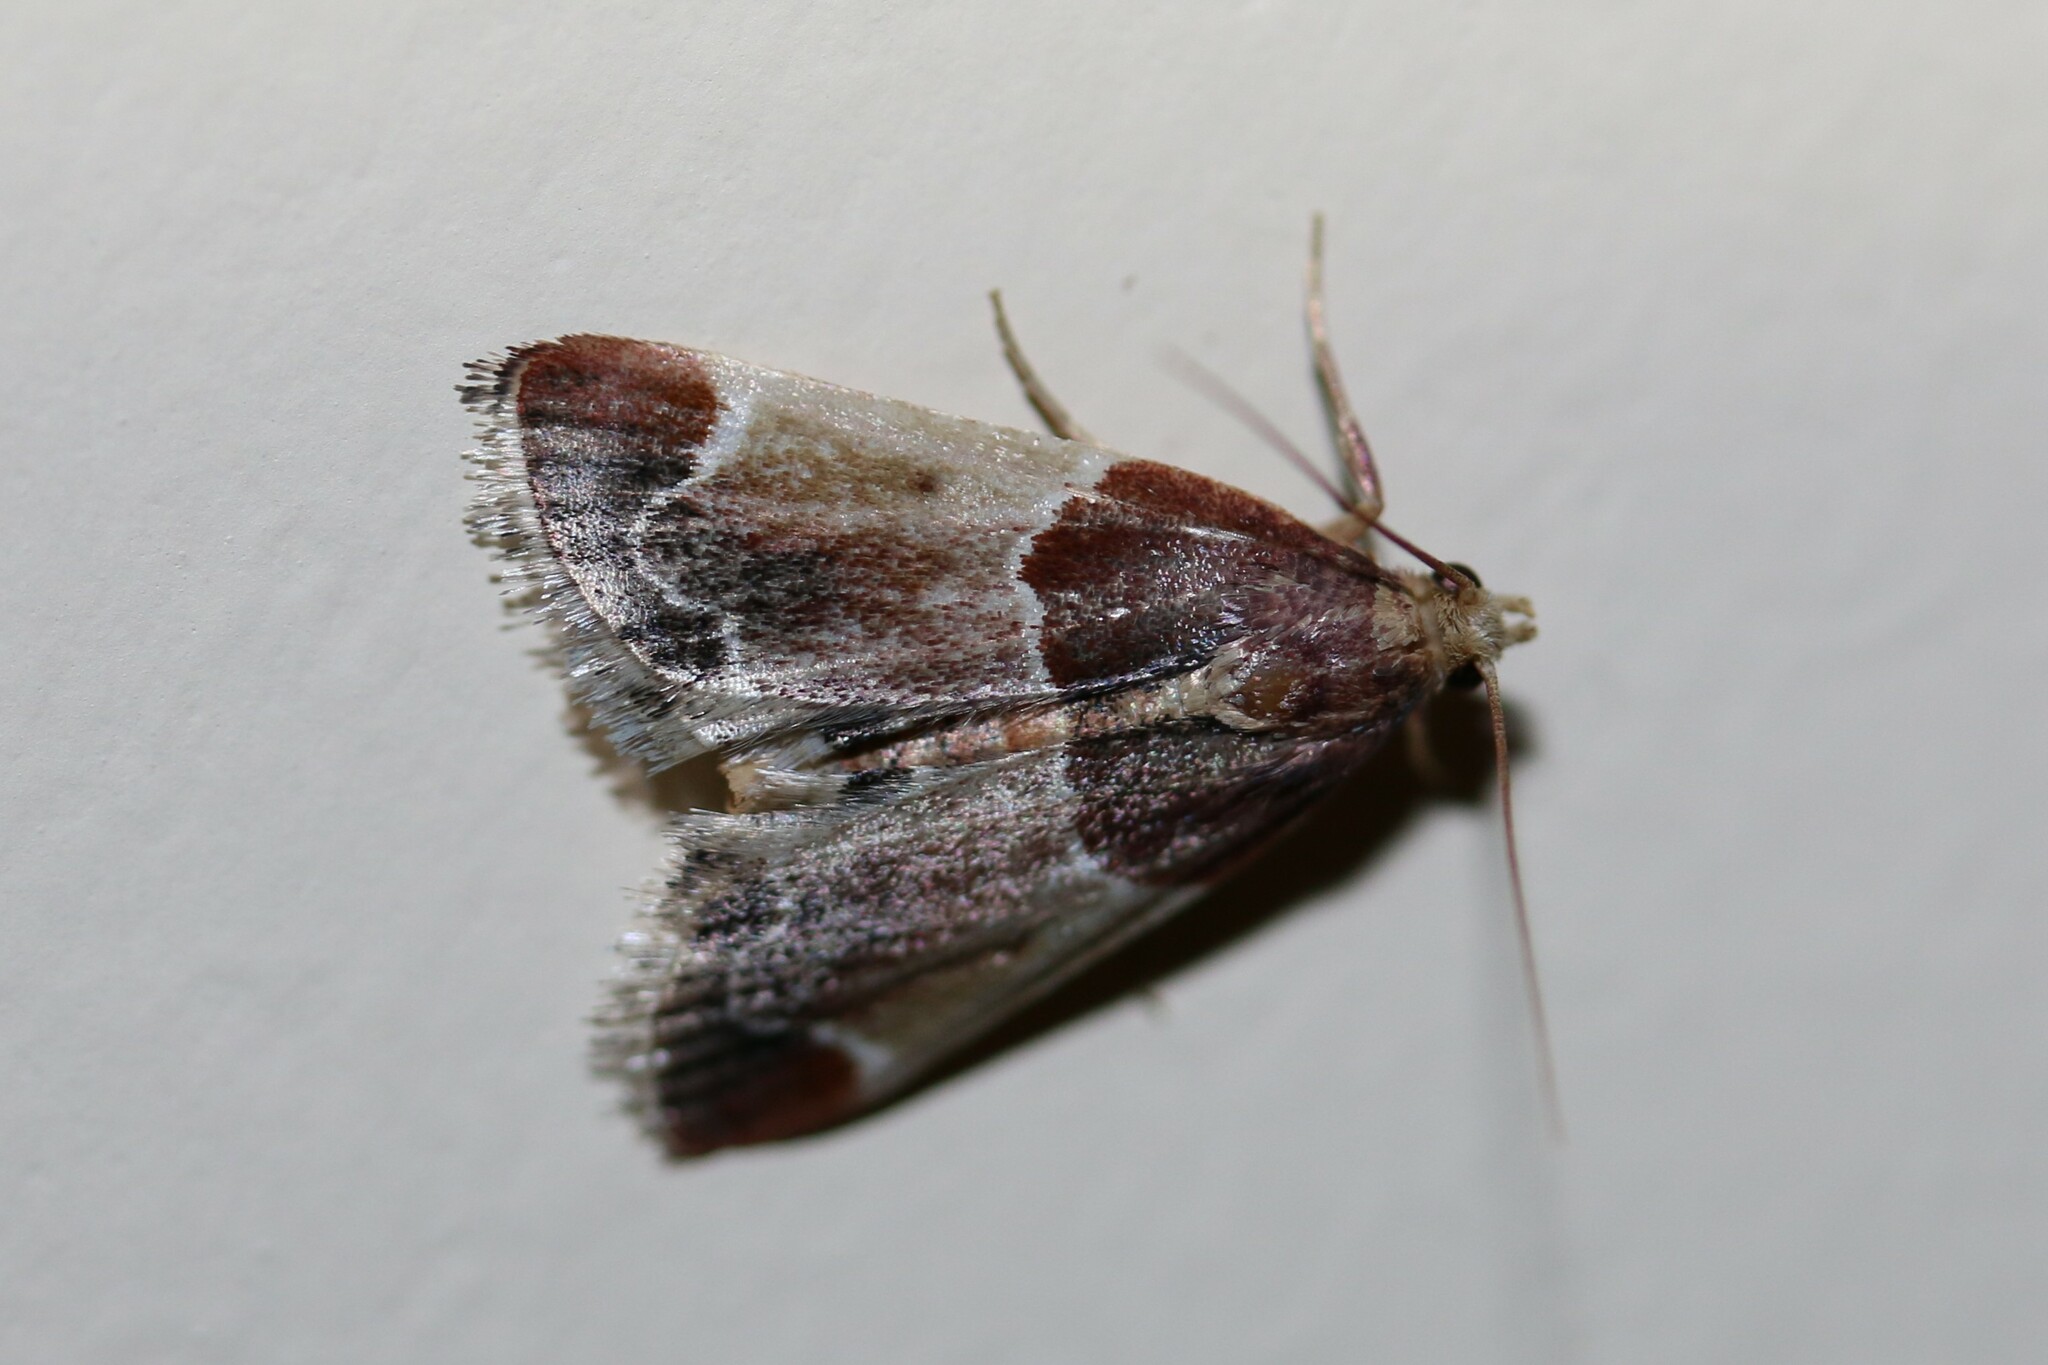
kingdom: Animalia
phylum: Arthropoda
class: Insecta
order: Lepidoptera
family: Pyralidae
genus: Pyralis
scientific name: Pyralis farinalis
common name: Meal moth
